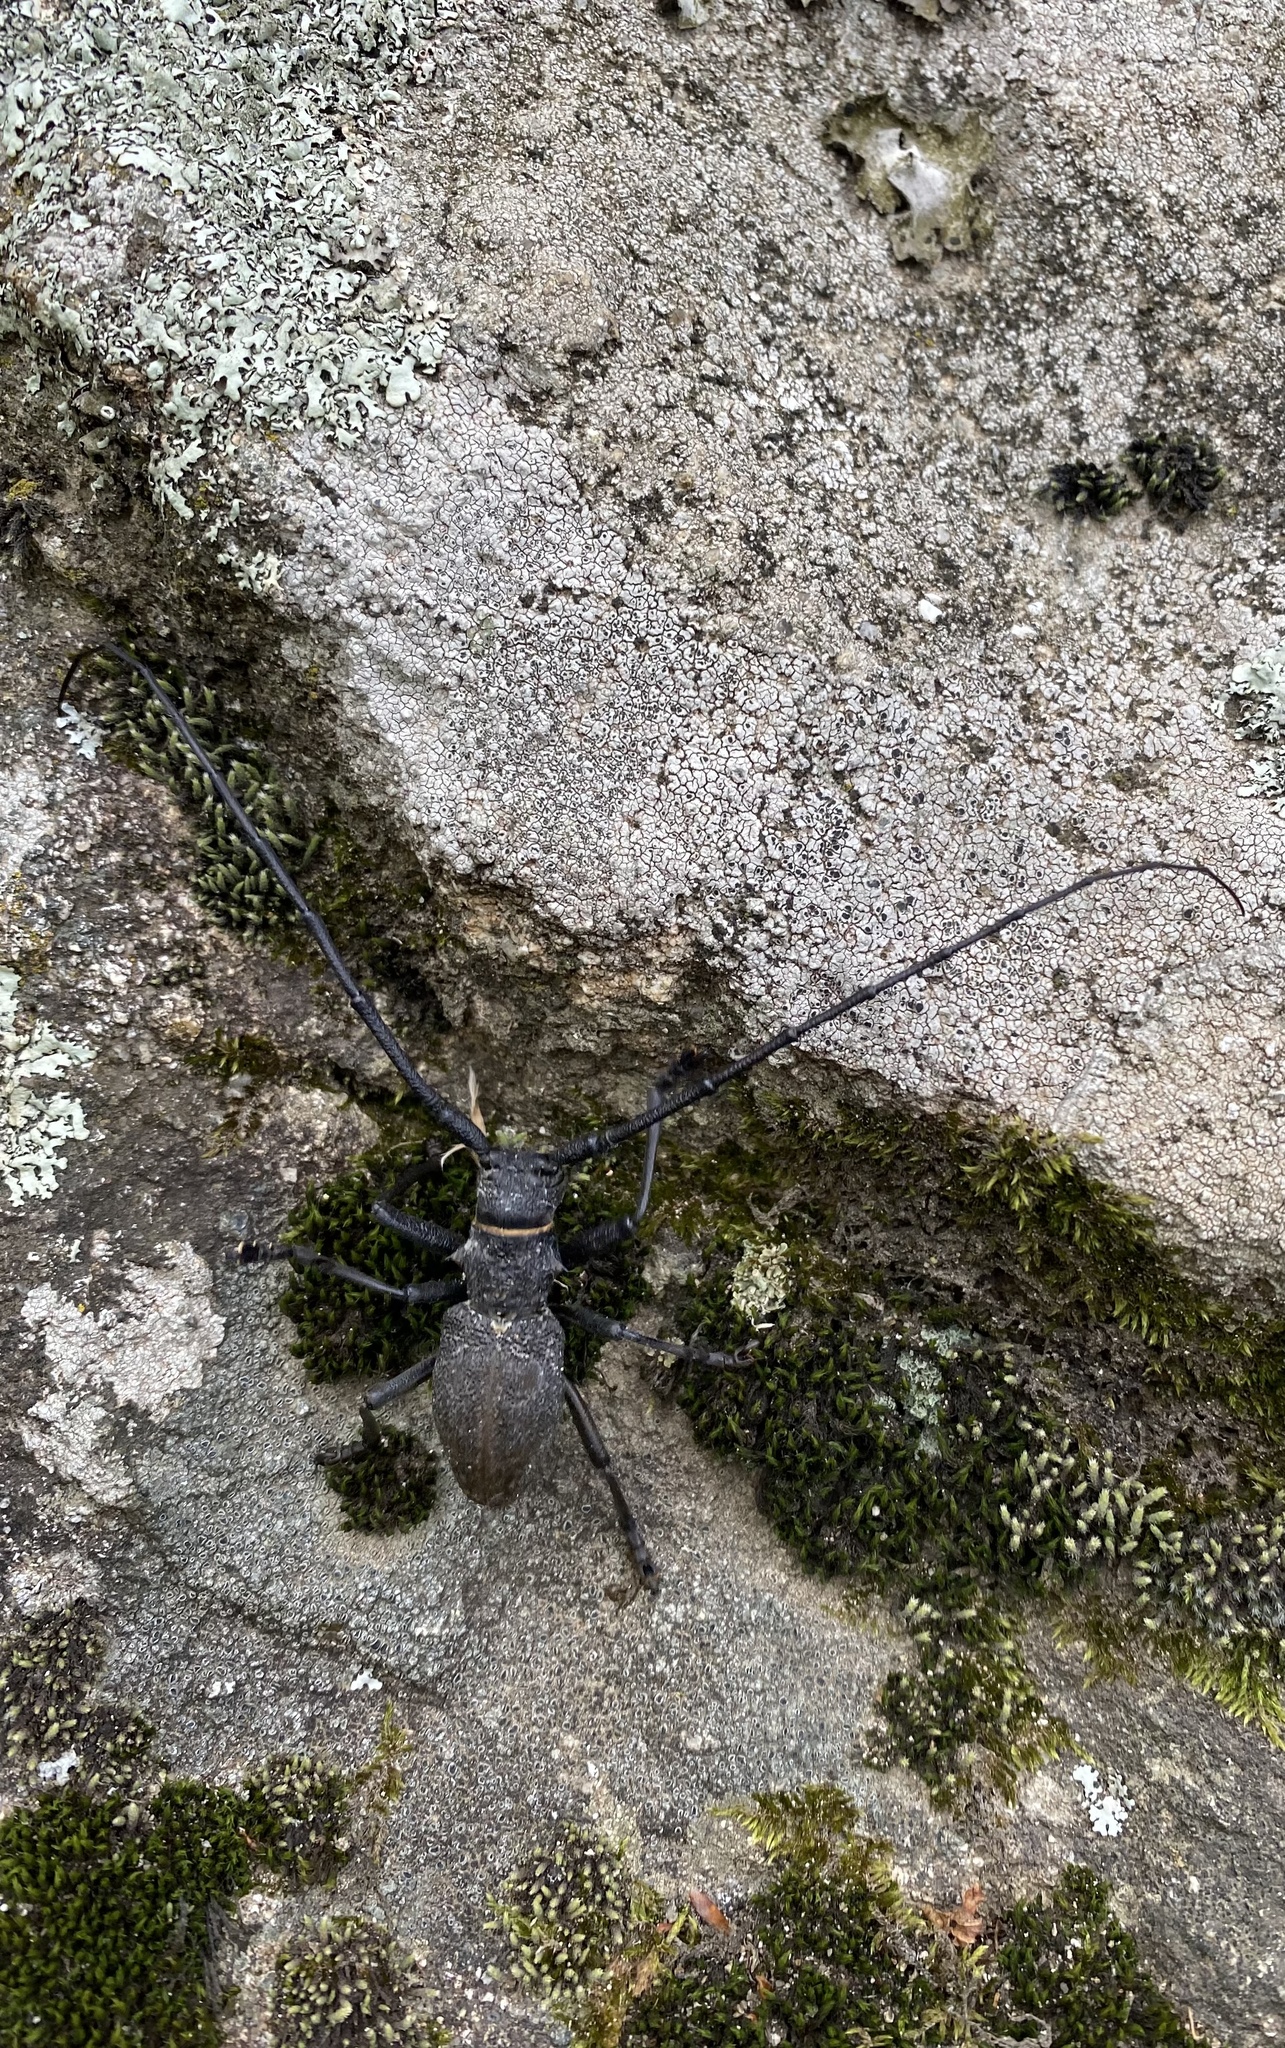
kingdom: Animalia
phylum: Arthropoda
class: Insecta
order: Coleoptera
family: Cerambycidae
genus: Morimus
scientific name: Morimus asper
